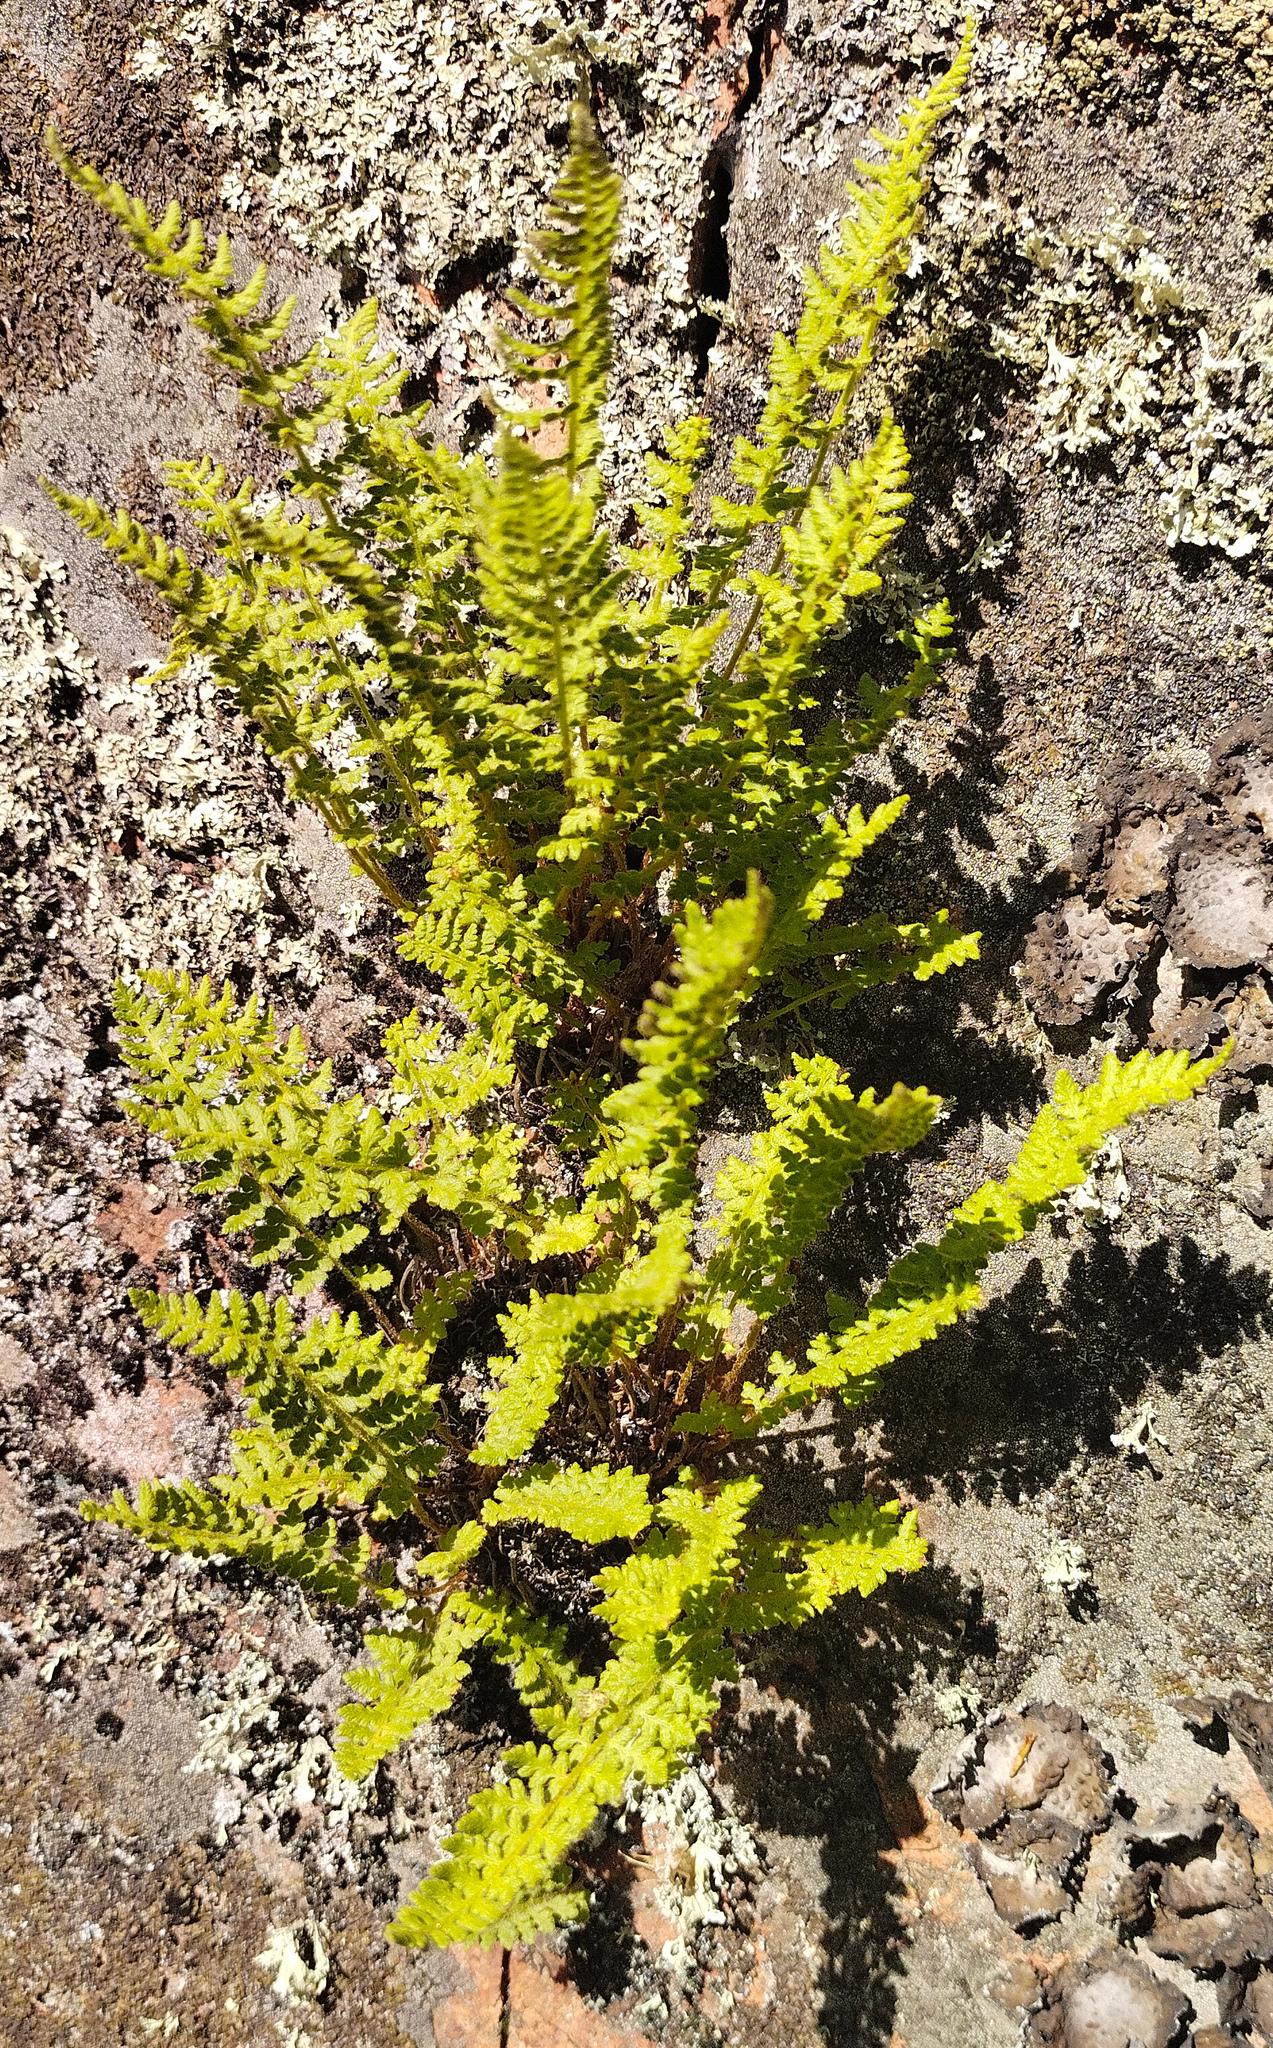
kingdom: Plantae
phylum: Tracheophyta
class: Polypodiopsida
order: Polypodiales
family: Woodsiaceae
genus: Woodsia
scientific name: Woodsia ilvensis
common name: Fragrant woodsia
